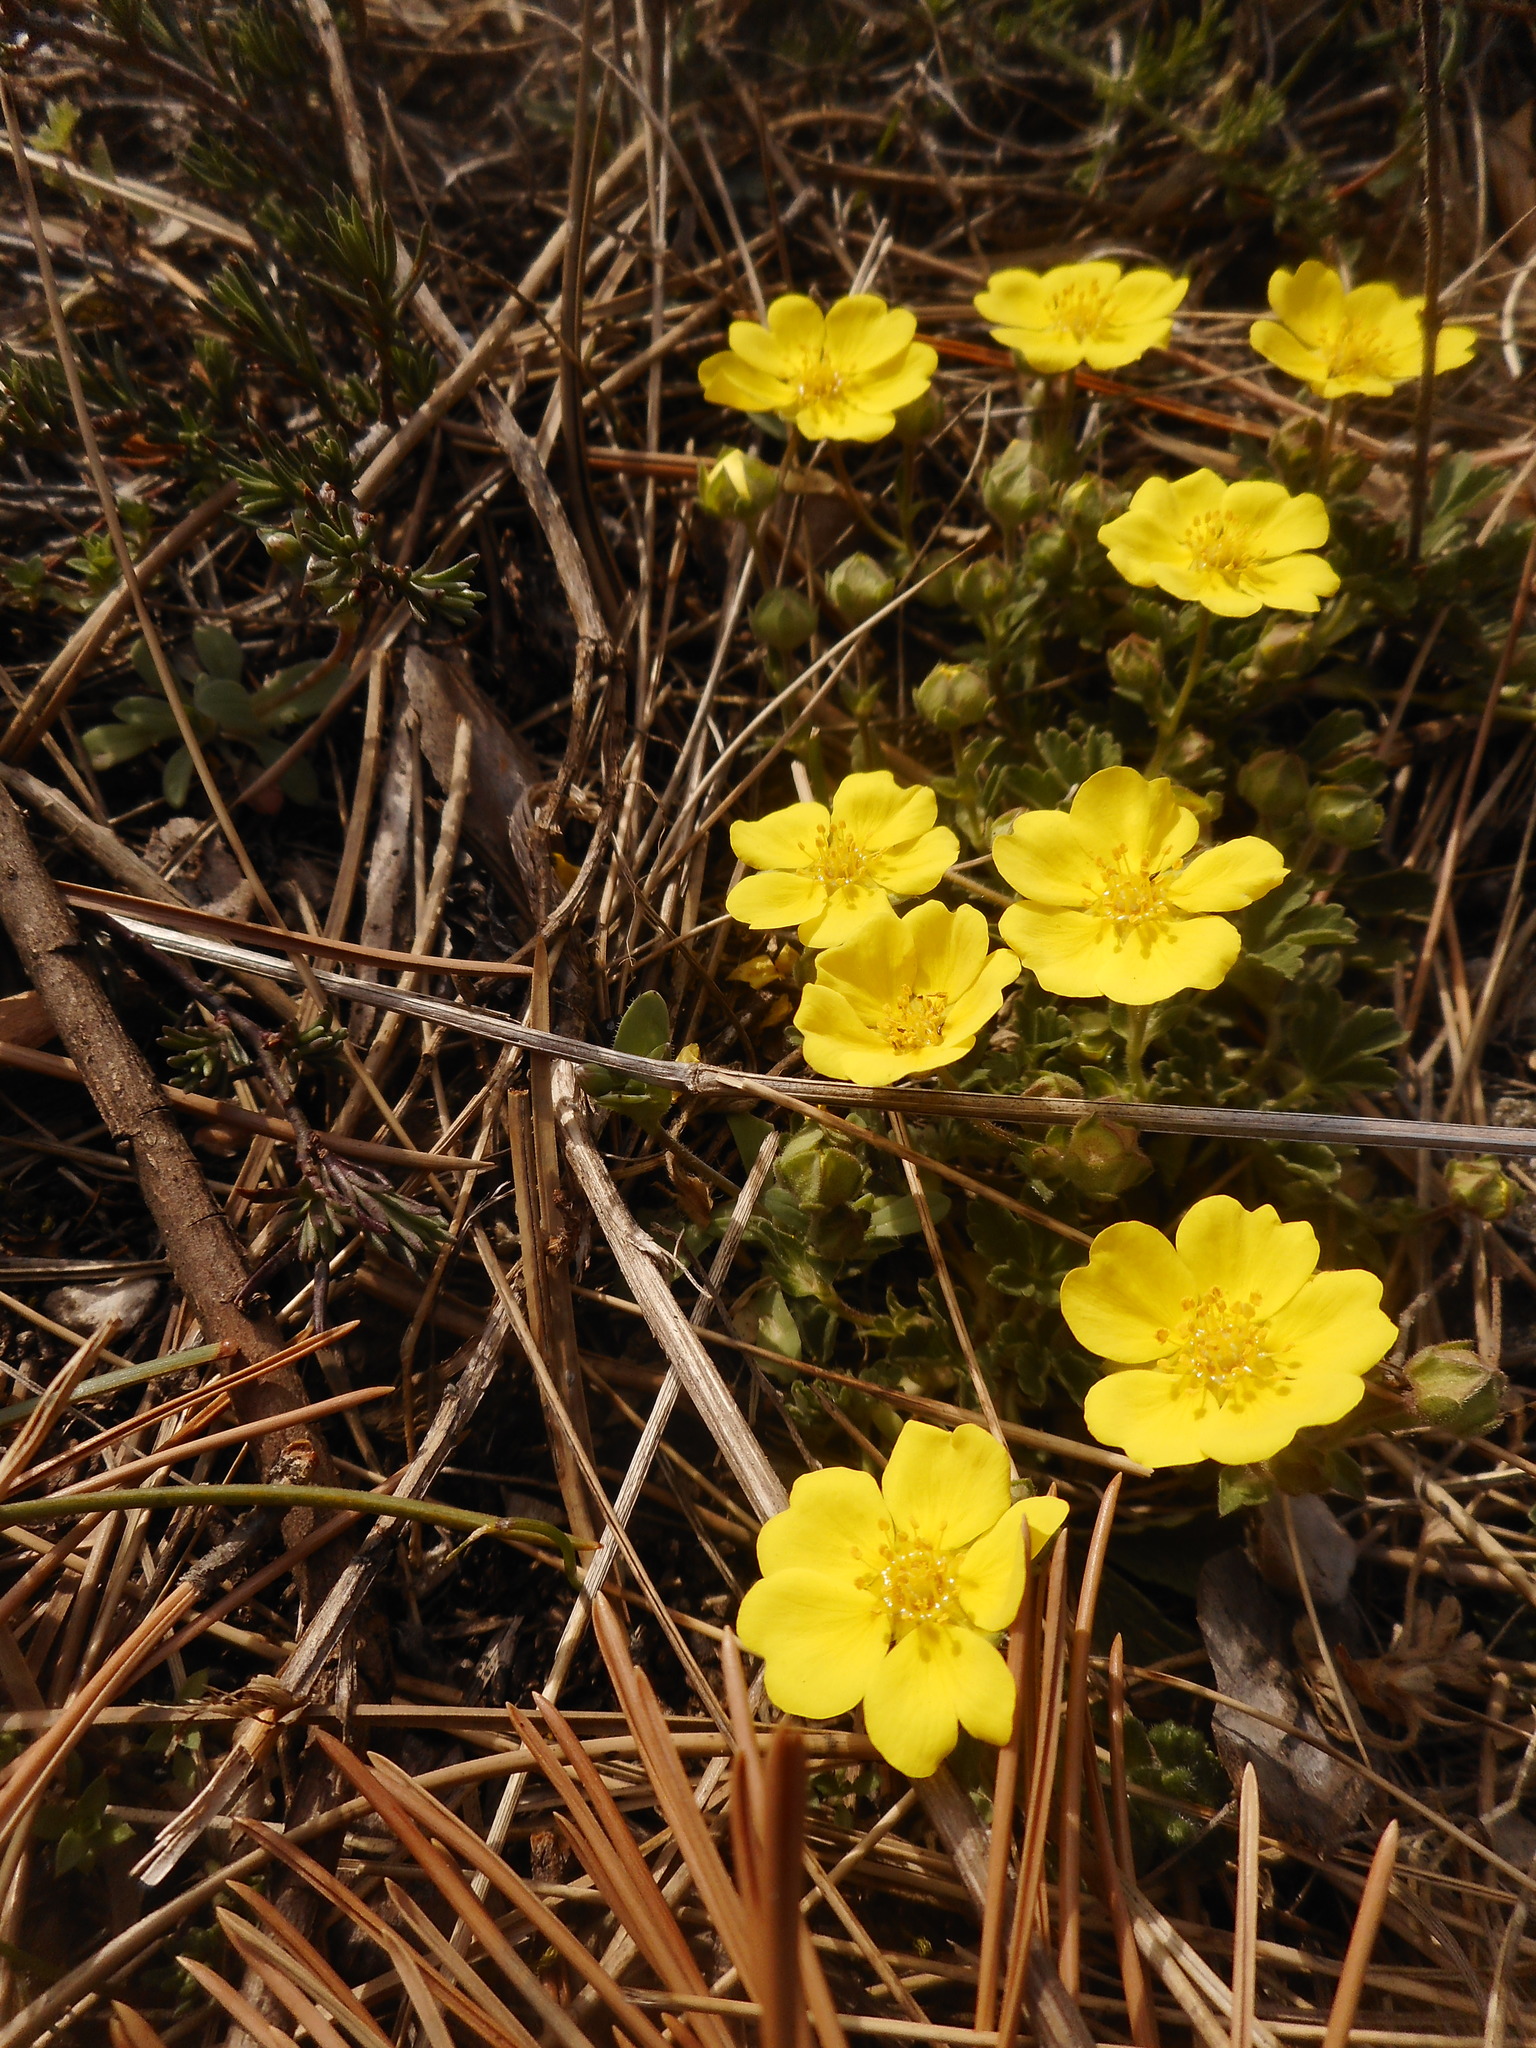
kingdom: Plantae
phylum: Tracheophyta
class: Magnoliopsida
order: Rosales
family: Rosaceae
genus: Potentilla
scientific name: Potentilla incana
